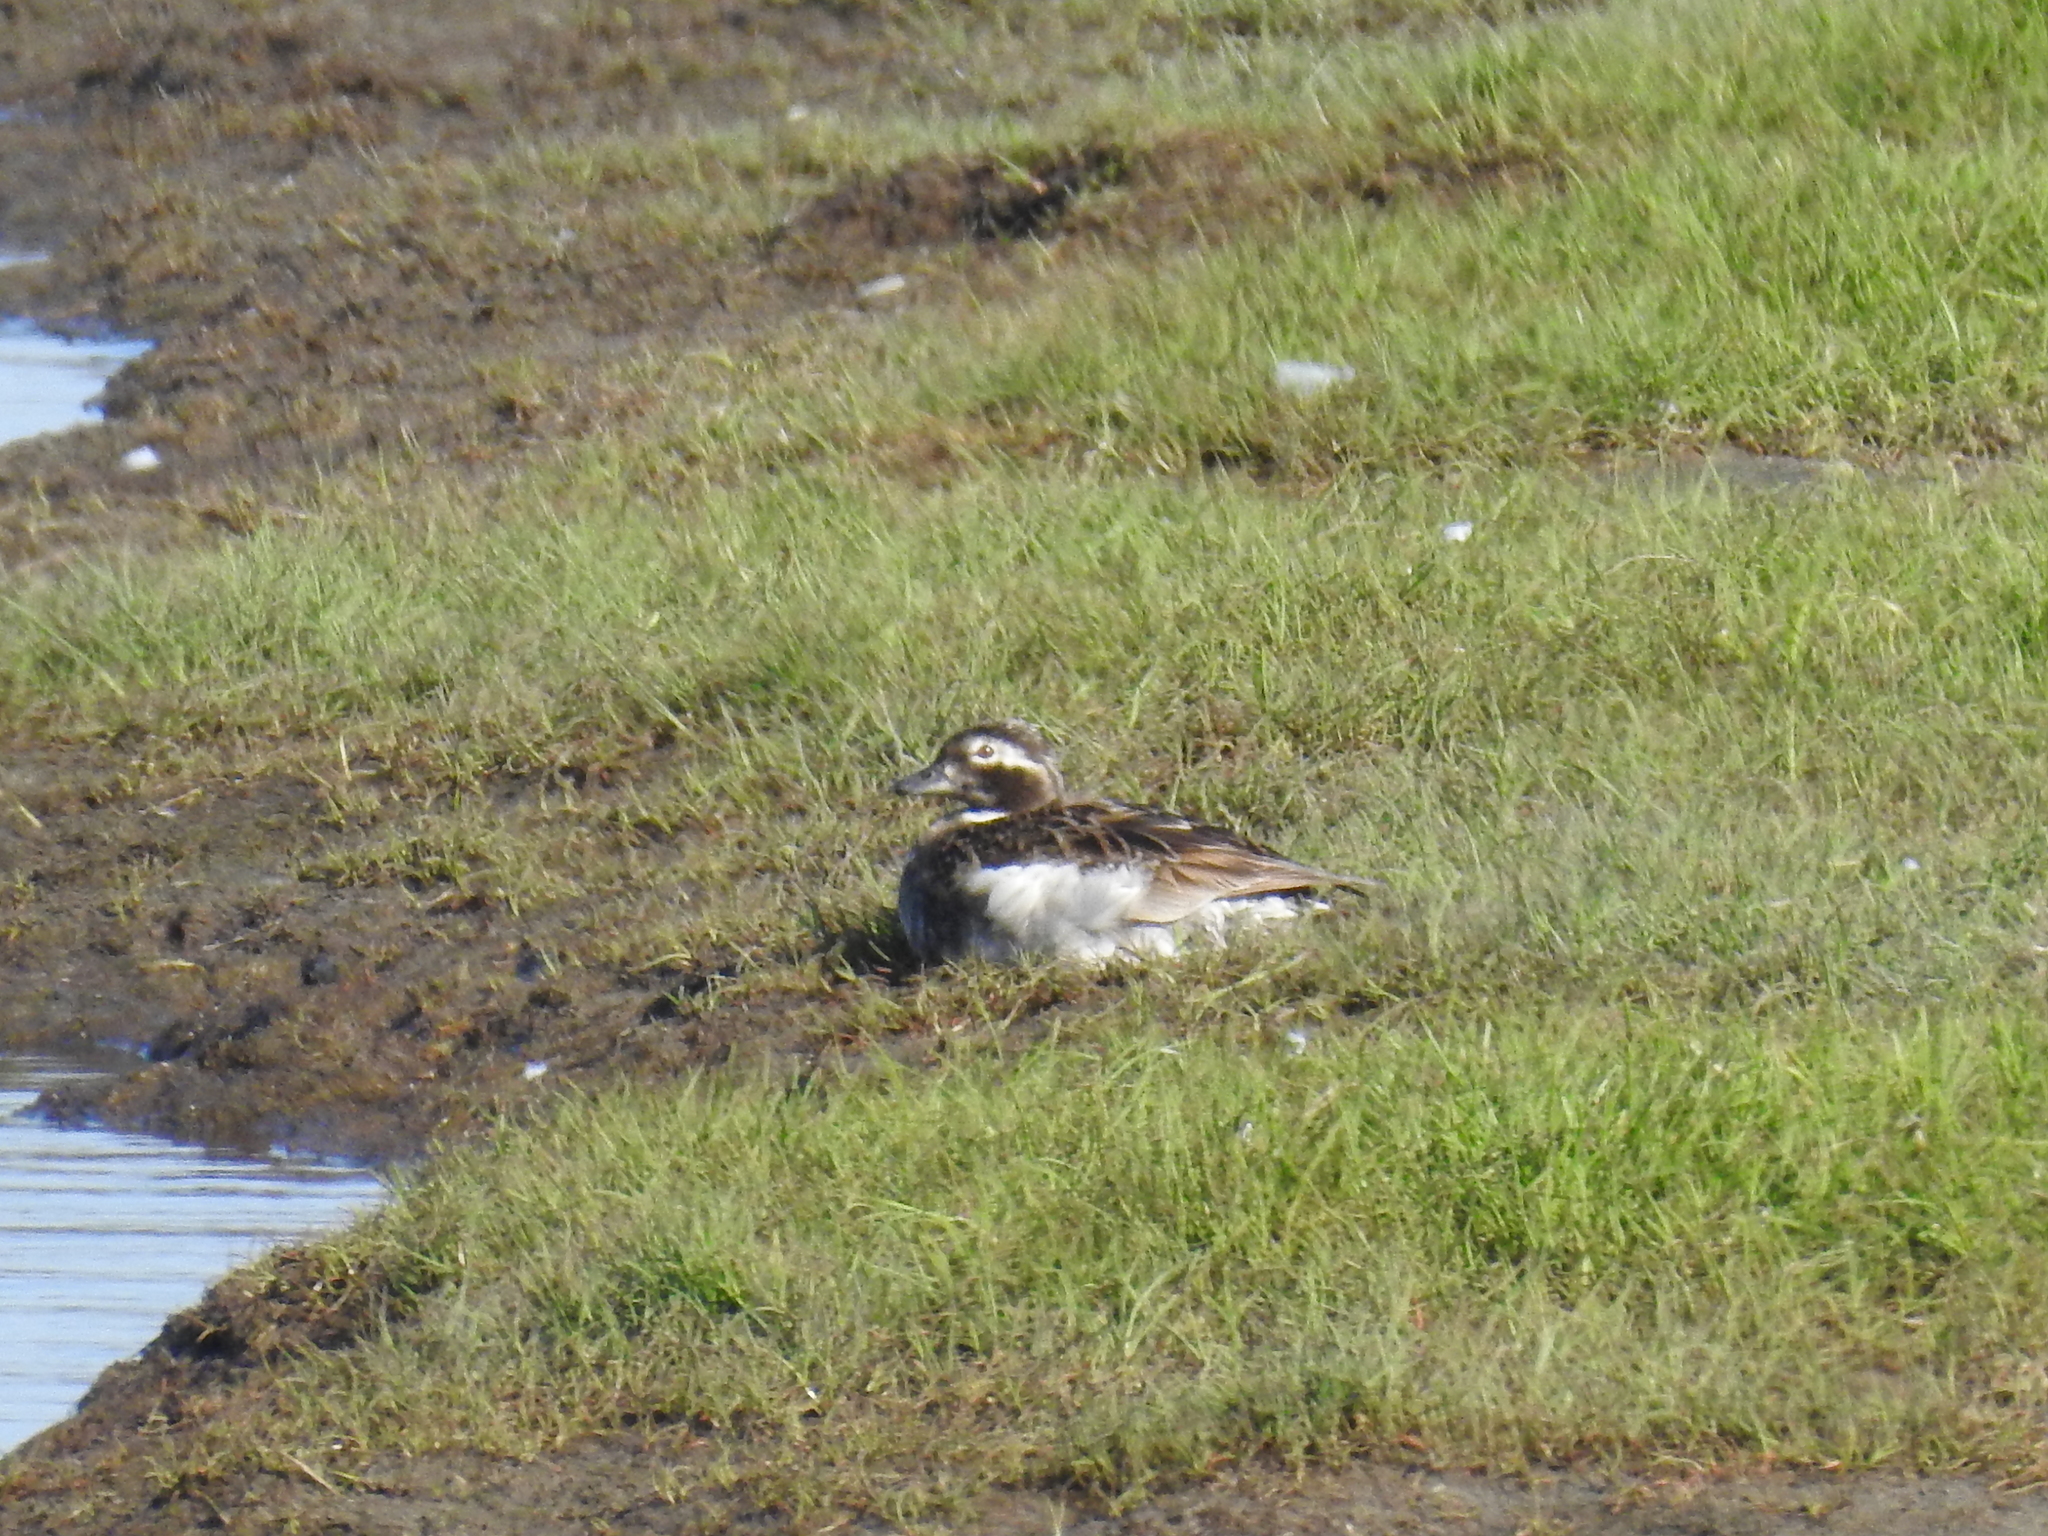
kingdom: Animalia
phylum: Chordata
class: Aves
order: Anseriformes
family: Anatidae
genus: Clangula
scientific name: Clangula hyemalis
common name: Long-tailed duck
